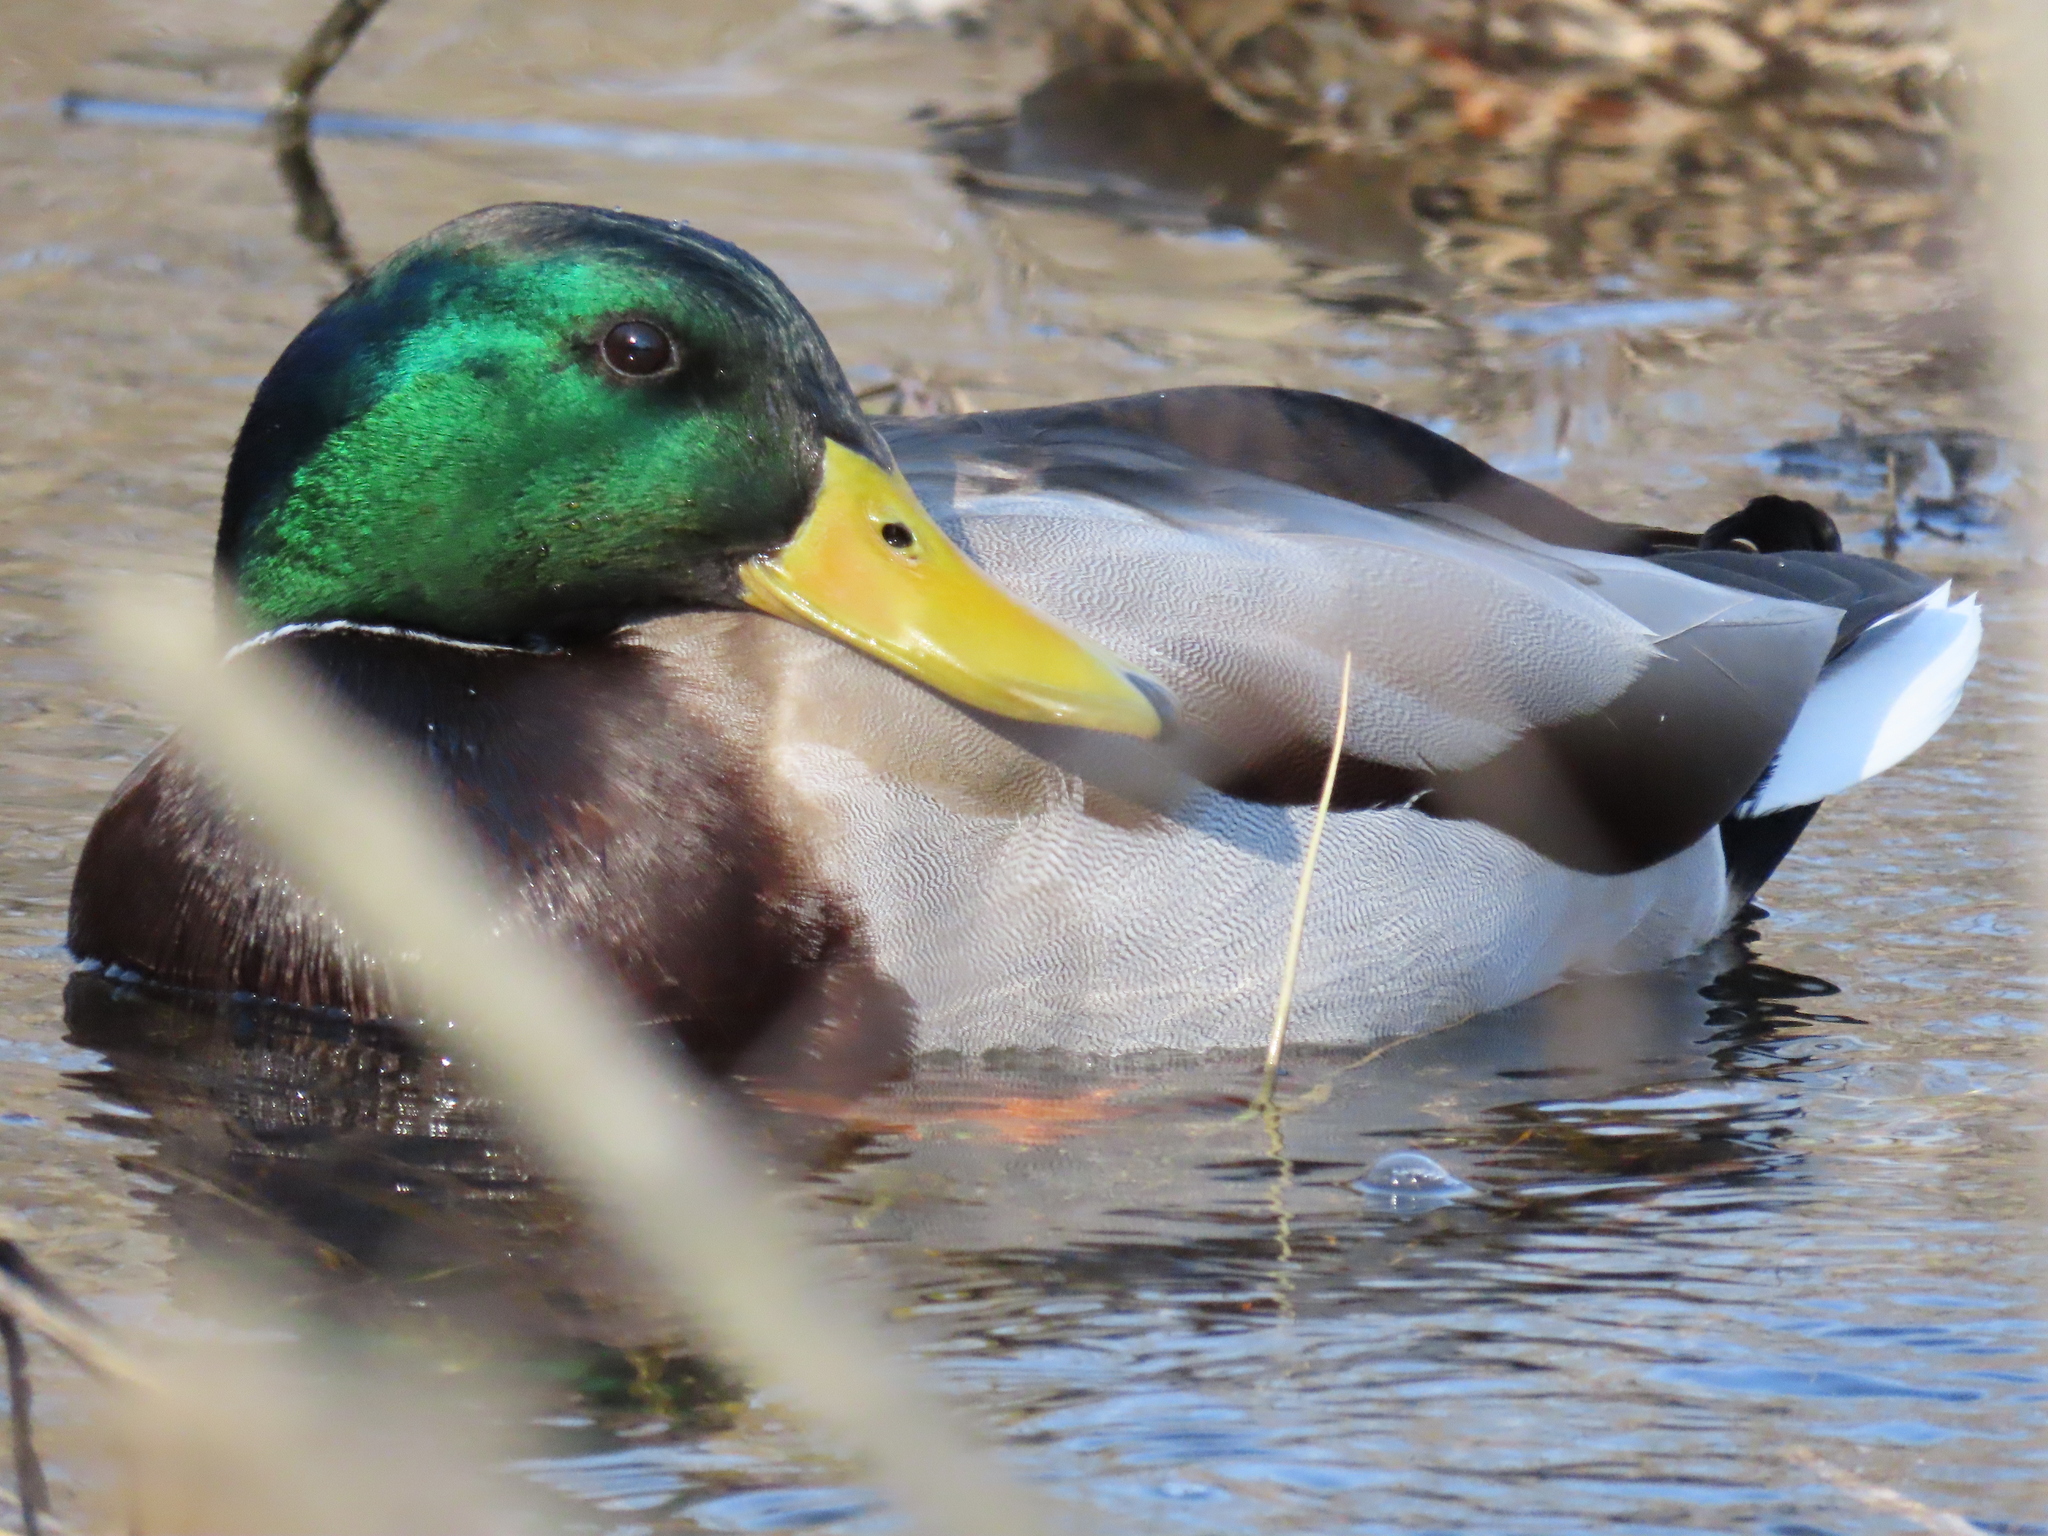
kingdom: Animalia
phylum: Chordata
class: Aves
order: Anseriformes
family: Anatidae
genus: Anas
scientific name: Anas platyrhynchos
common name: Mallard
